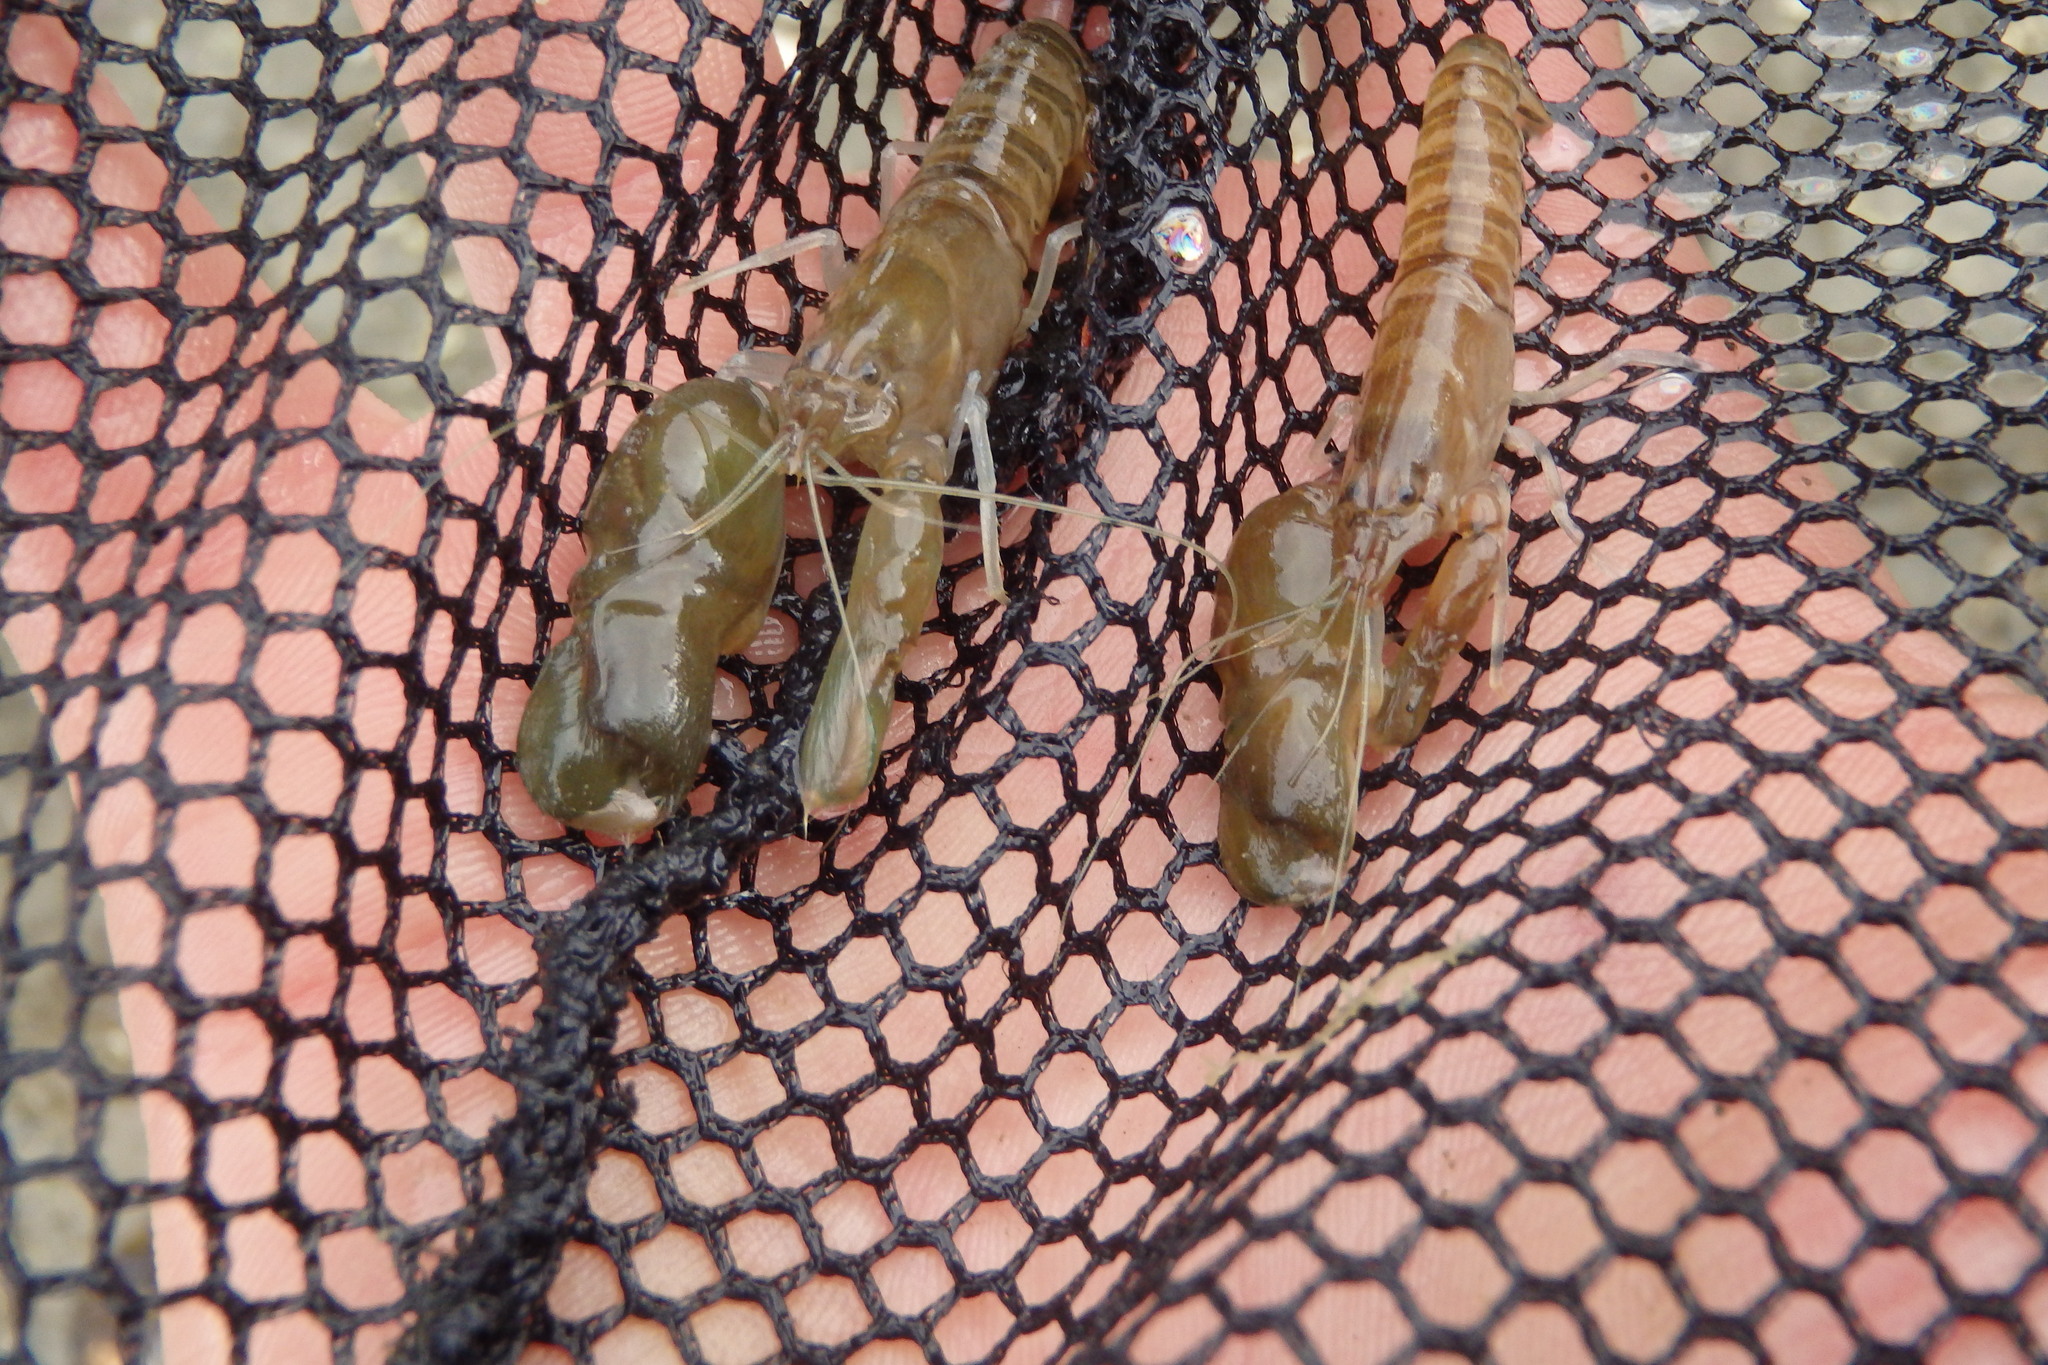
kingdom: Animalia
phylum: Arthropoda
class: Malacostraca
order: Decapoda
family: Alpheidae
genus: Alpheus
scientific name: Alpheus richardsoni
